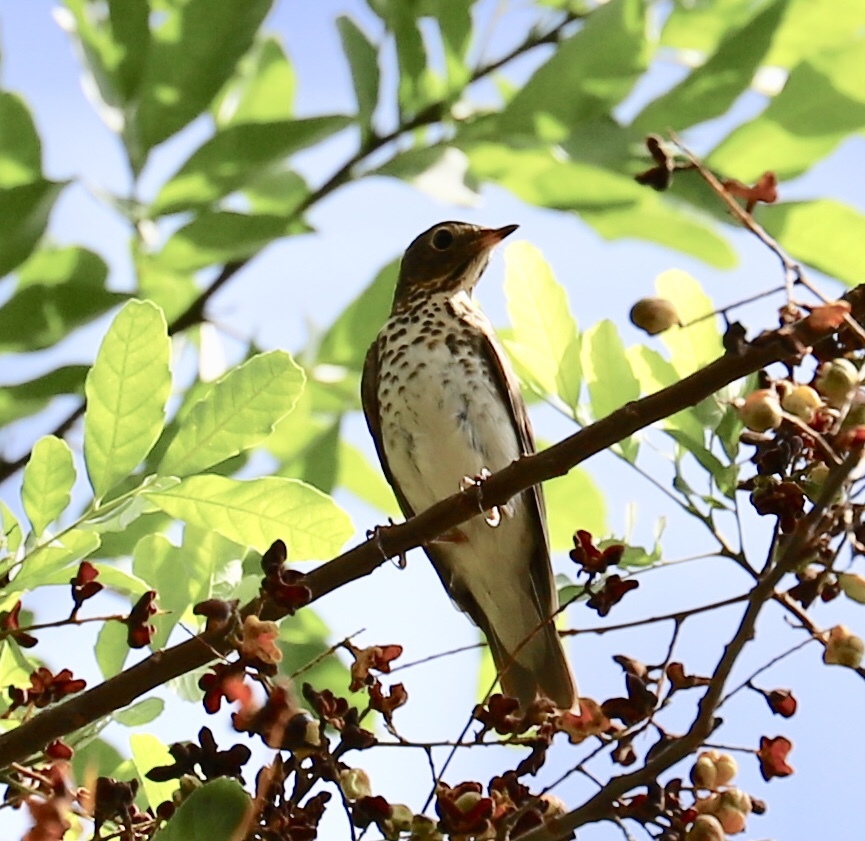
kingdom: Animalia
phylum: Chordata
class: Aves
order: Passeriformes
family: Turdidae
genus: Catharus
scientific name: Catharus ustulatus
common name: Swainson's thrush
